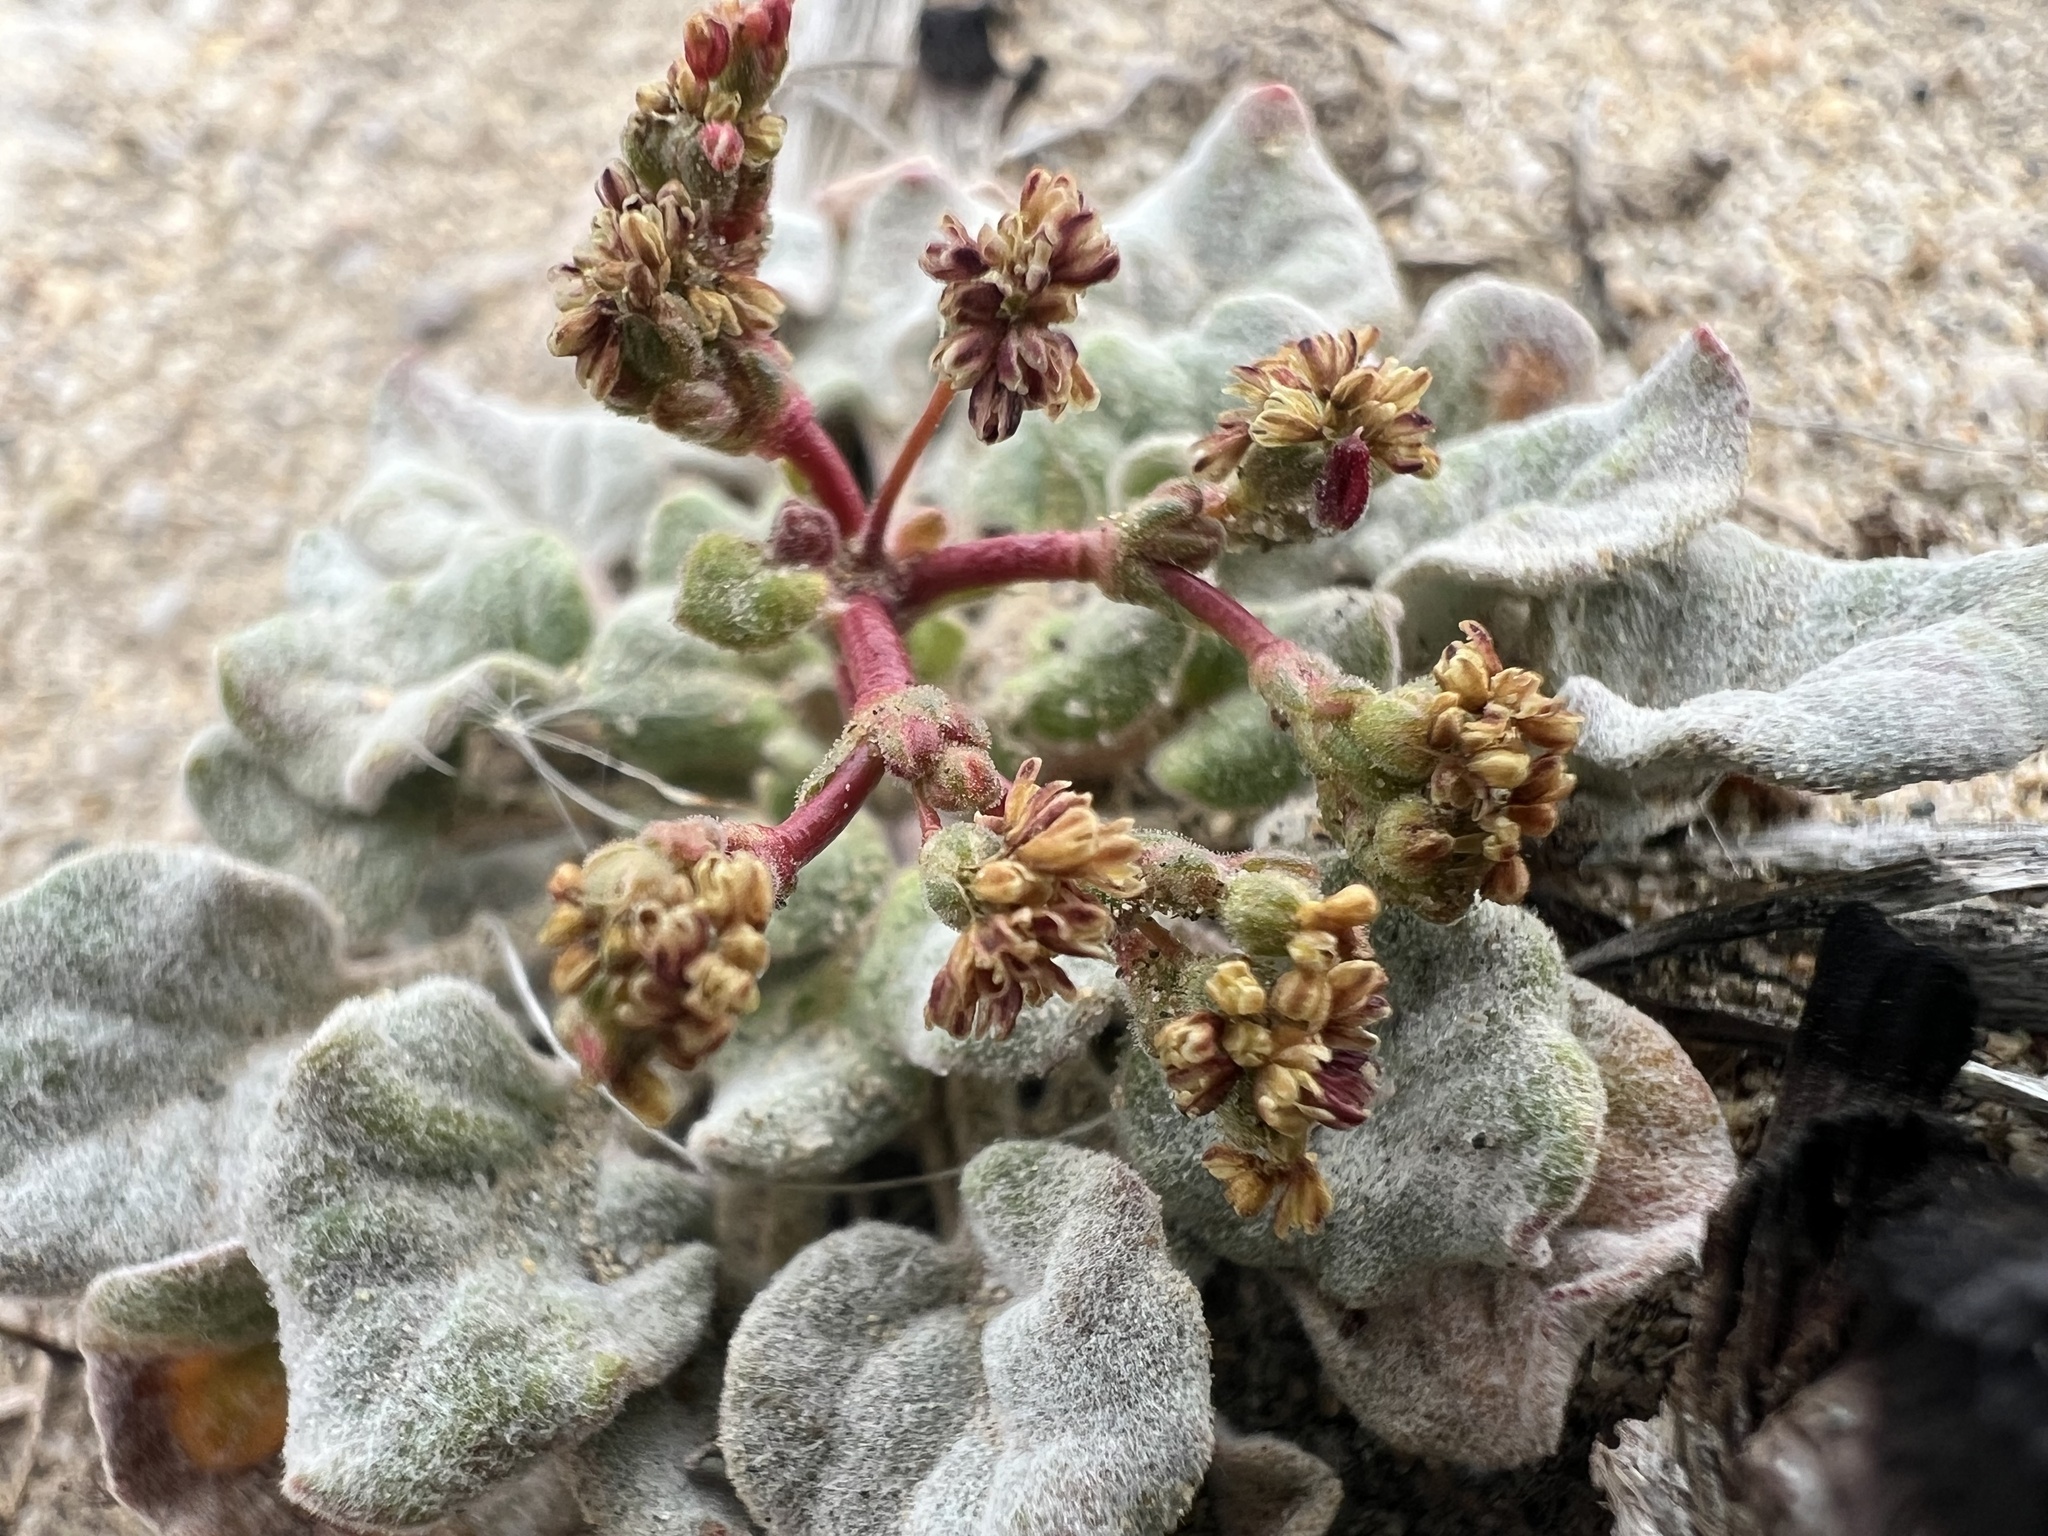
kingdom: Plantae
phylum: Tracheophyta
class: Magnoliopsida
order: Caryophyllales
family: Polygonaceae
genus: Eriogonum
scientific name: Eriogonum pusillum
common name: Yellow turbans
